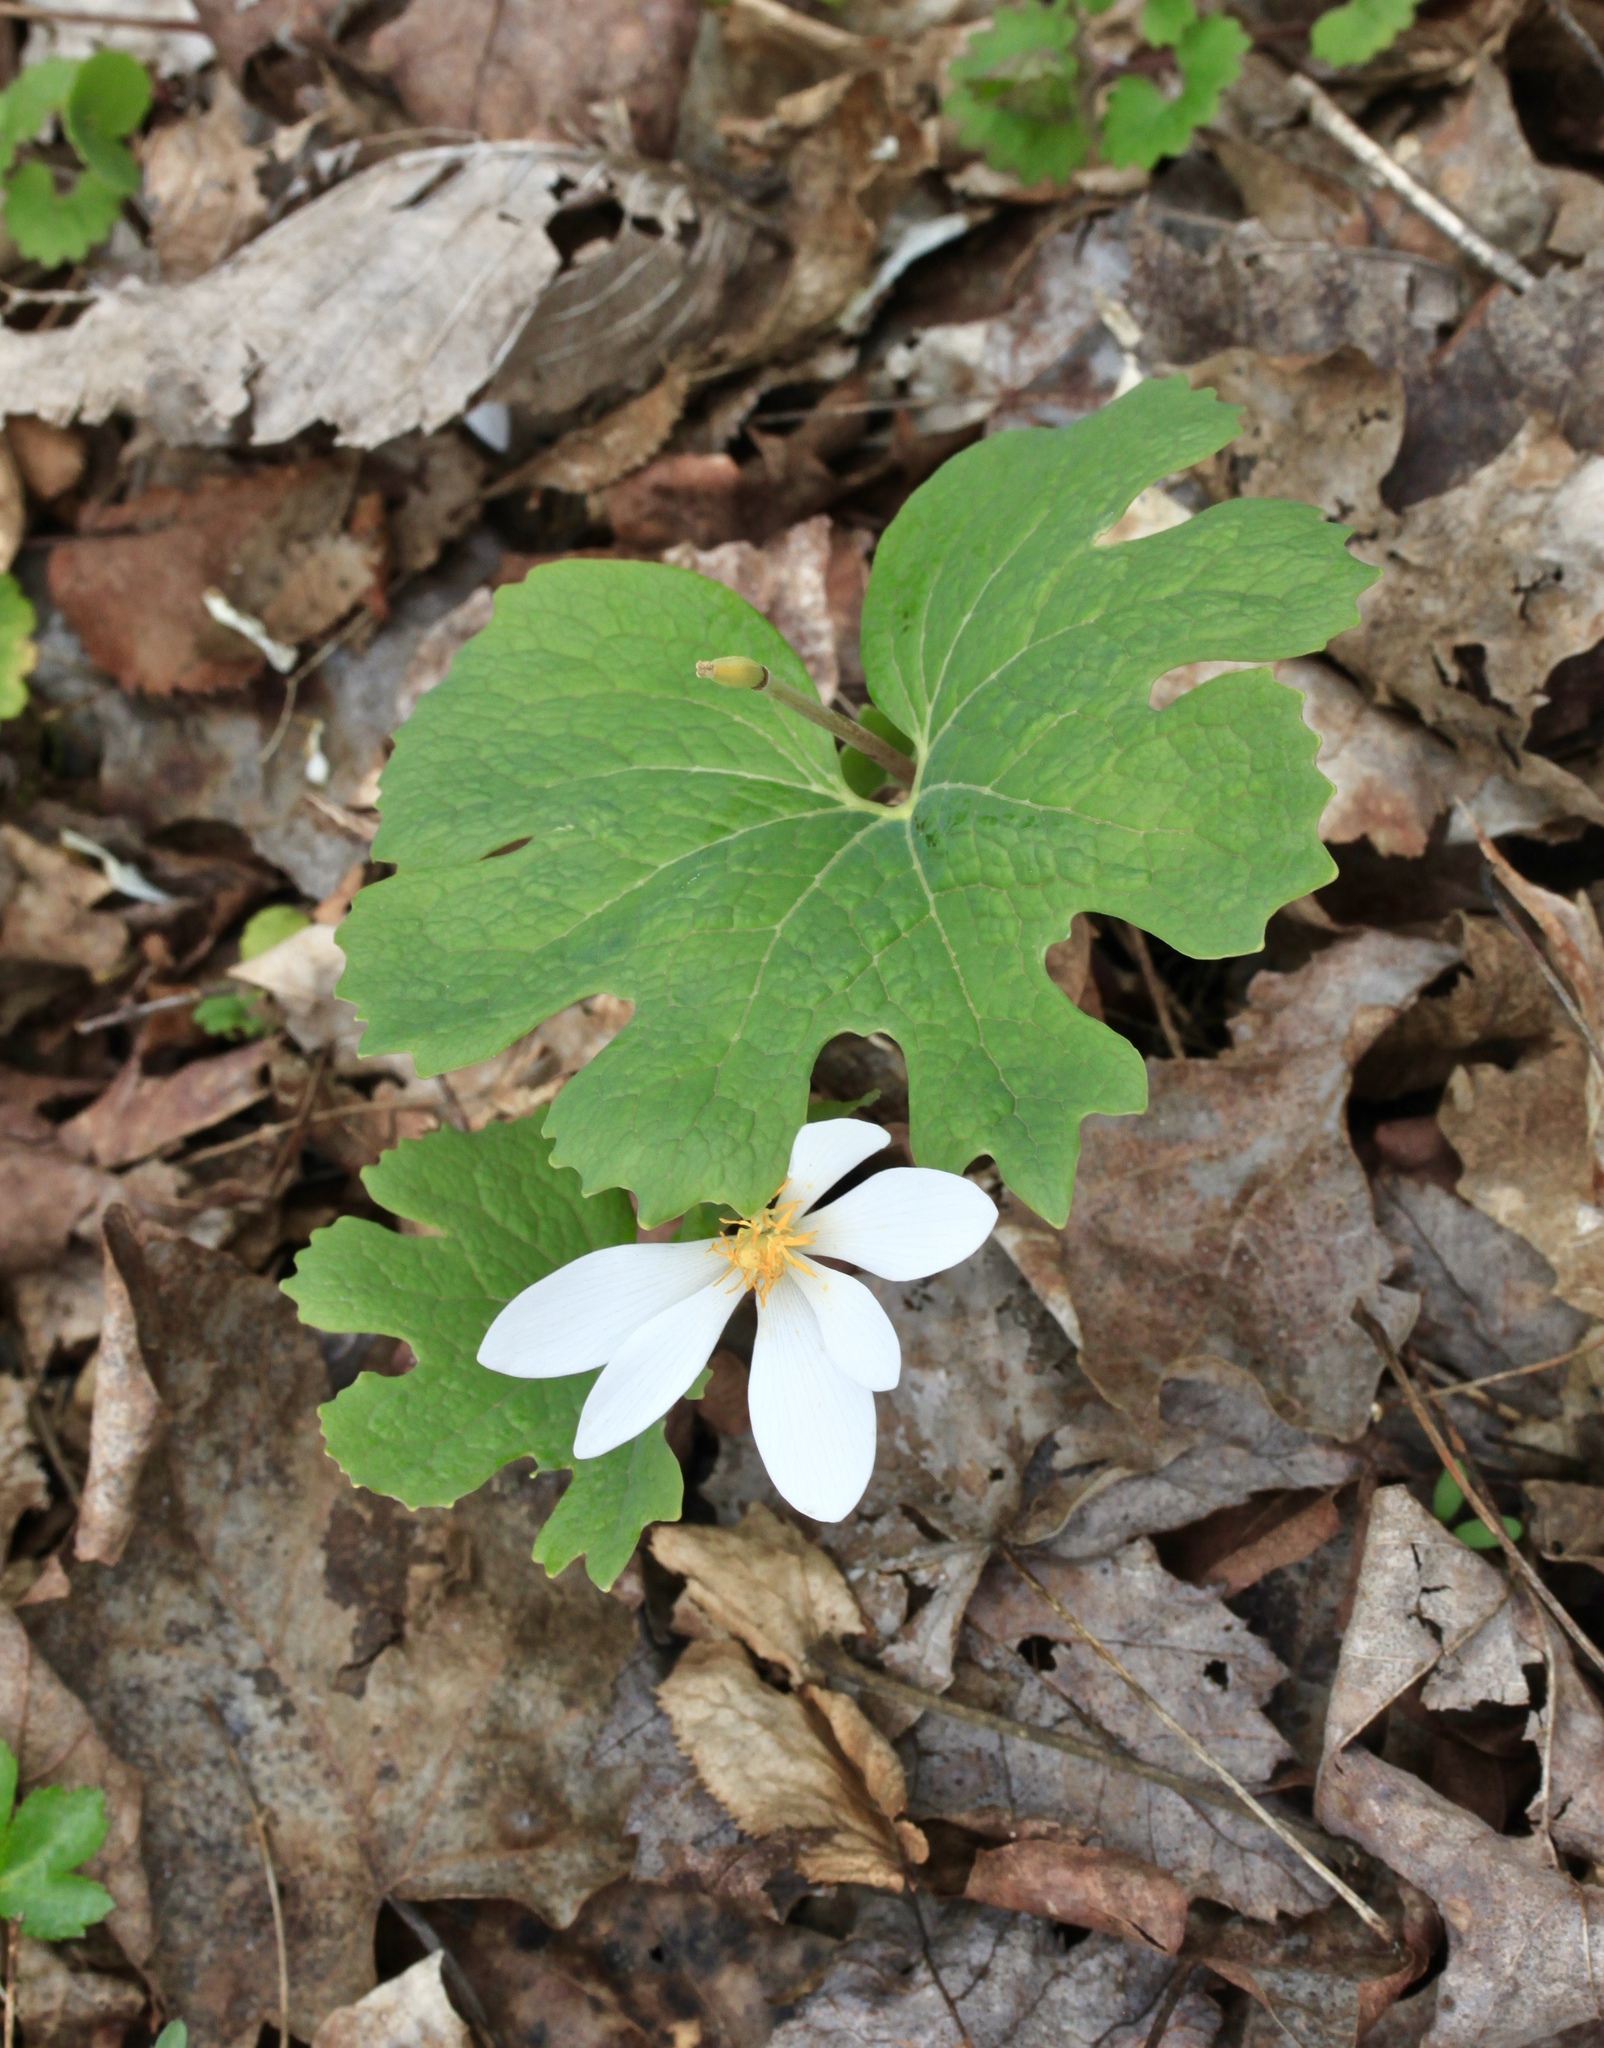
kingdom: Plantae
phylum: Tracheophyta
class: Magnoliopsida
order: Ranunculales
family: Papaveraceae
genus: Sanguinaria
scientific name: Sanguinaria canadensis
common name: Bloodroot
